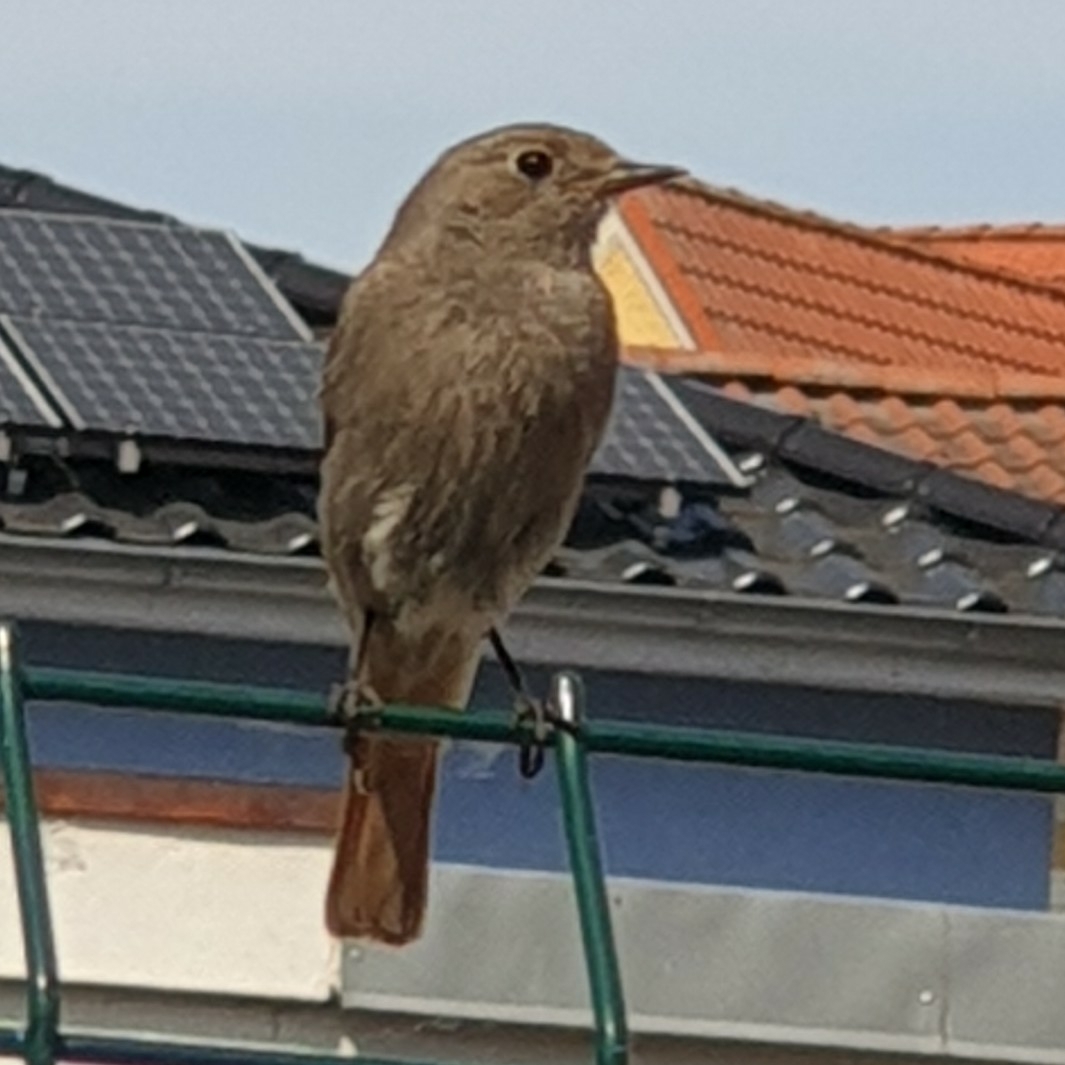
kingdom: Animalia
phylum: Chordata
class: Aves
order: Passeriformes
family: Muscicapidae
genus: Phoenicurus
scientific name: Phoenicurus ochruros
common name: Black redstart
